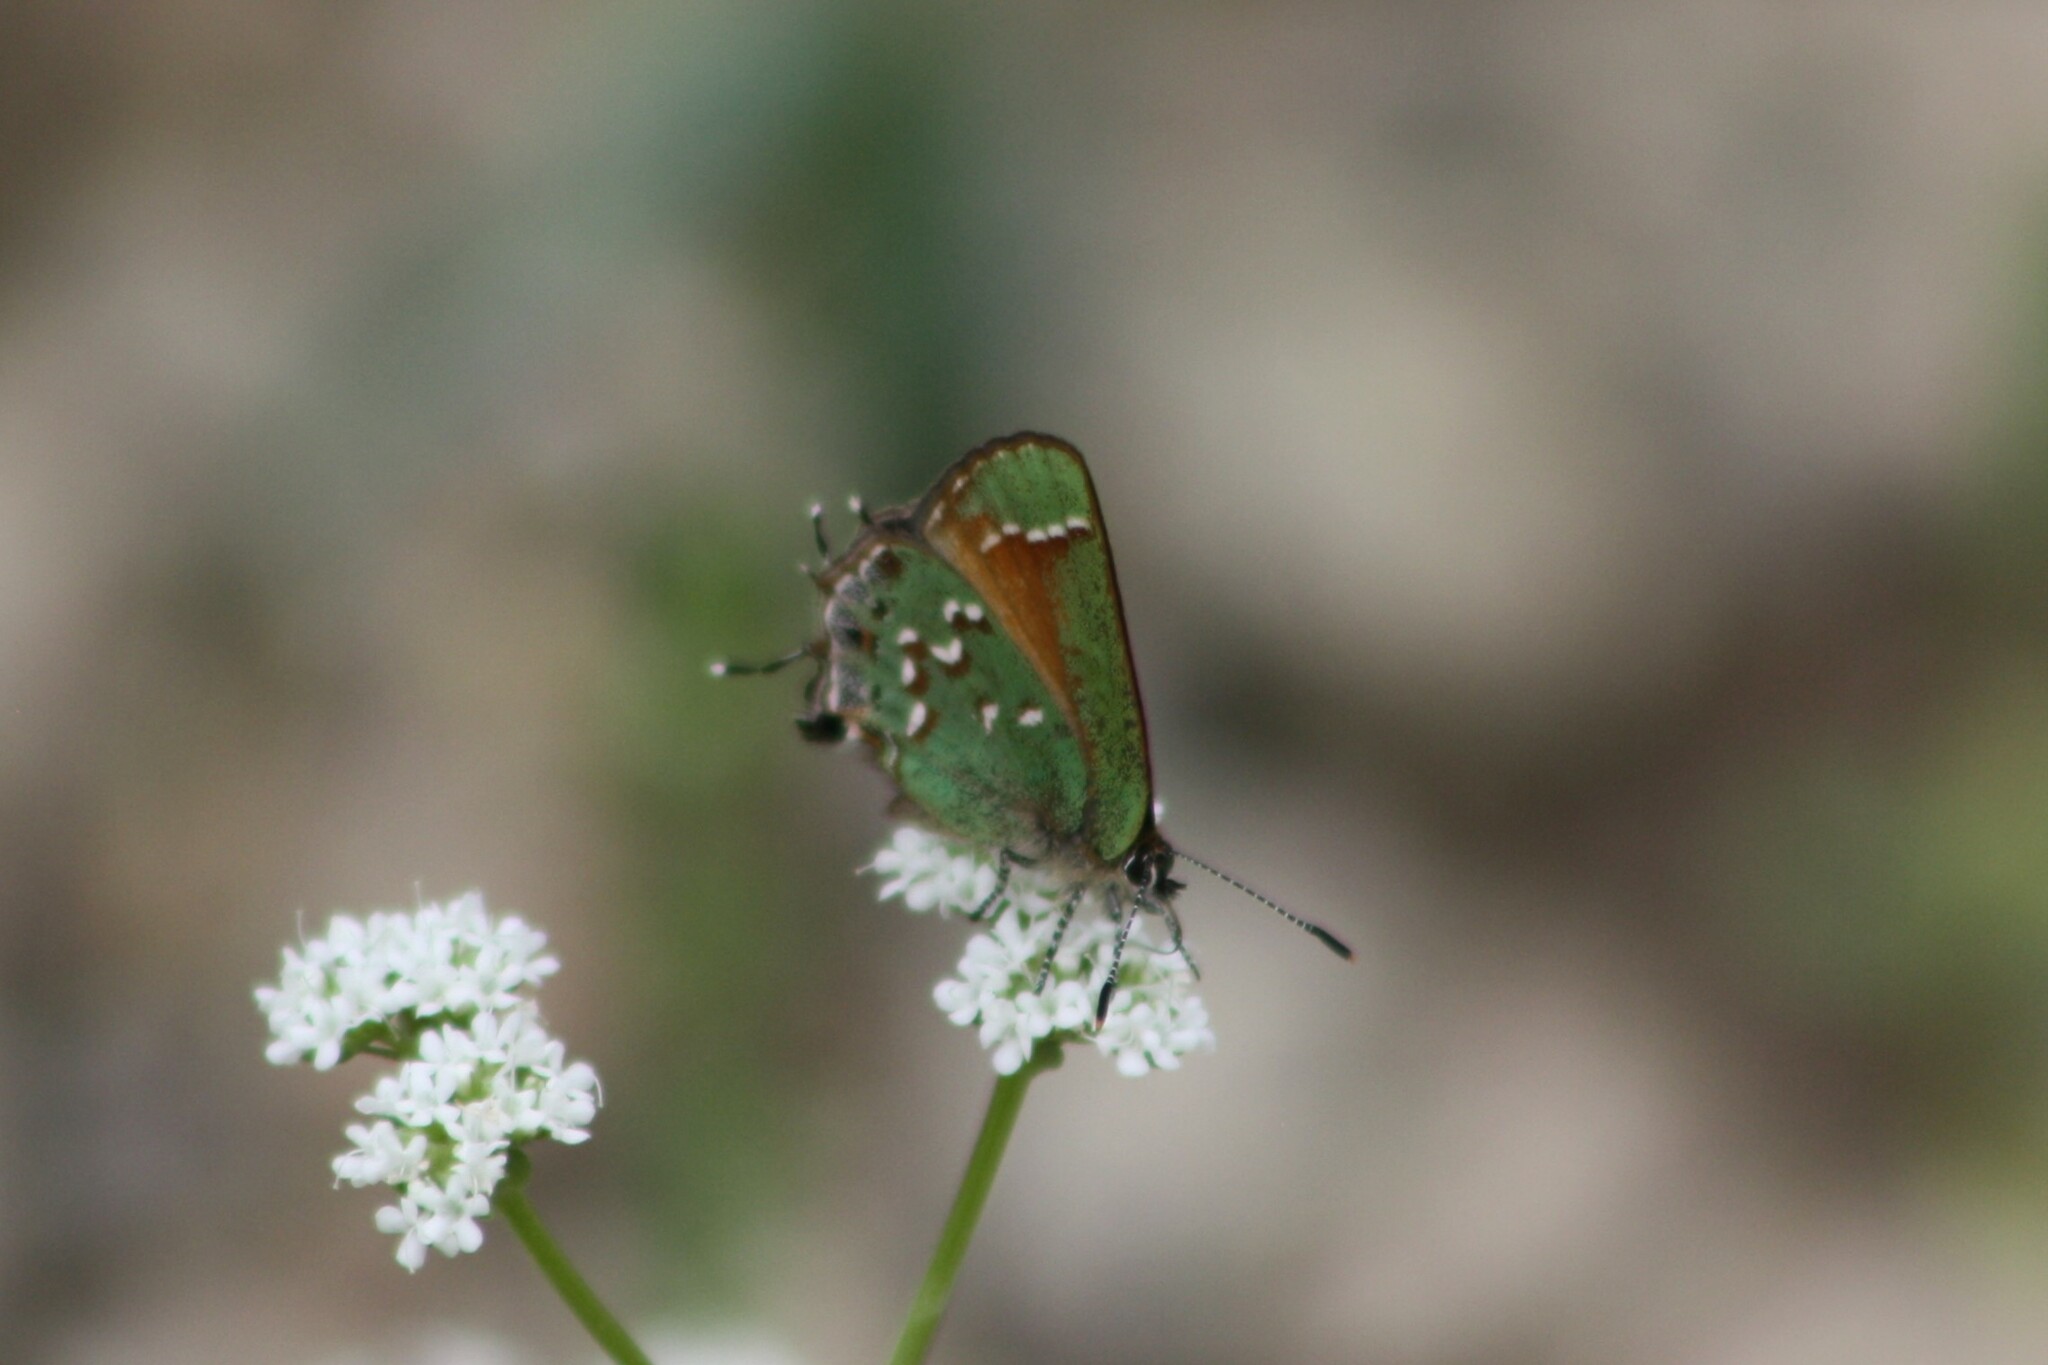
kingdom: Animalia
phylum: Arthropoda
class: Insecta
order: Lepidoptera
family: Lycaenidae
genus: Mitoura
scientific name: Mitoura gryneus
